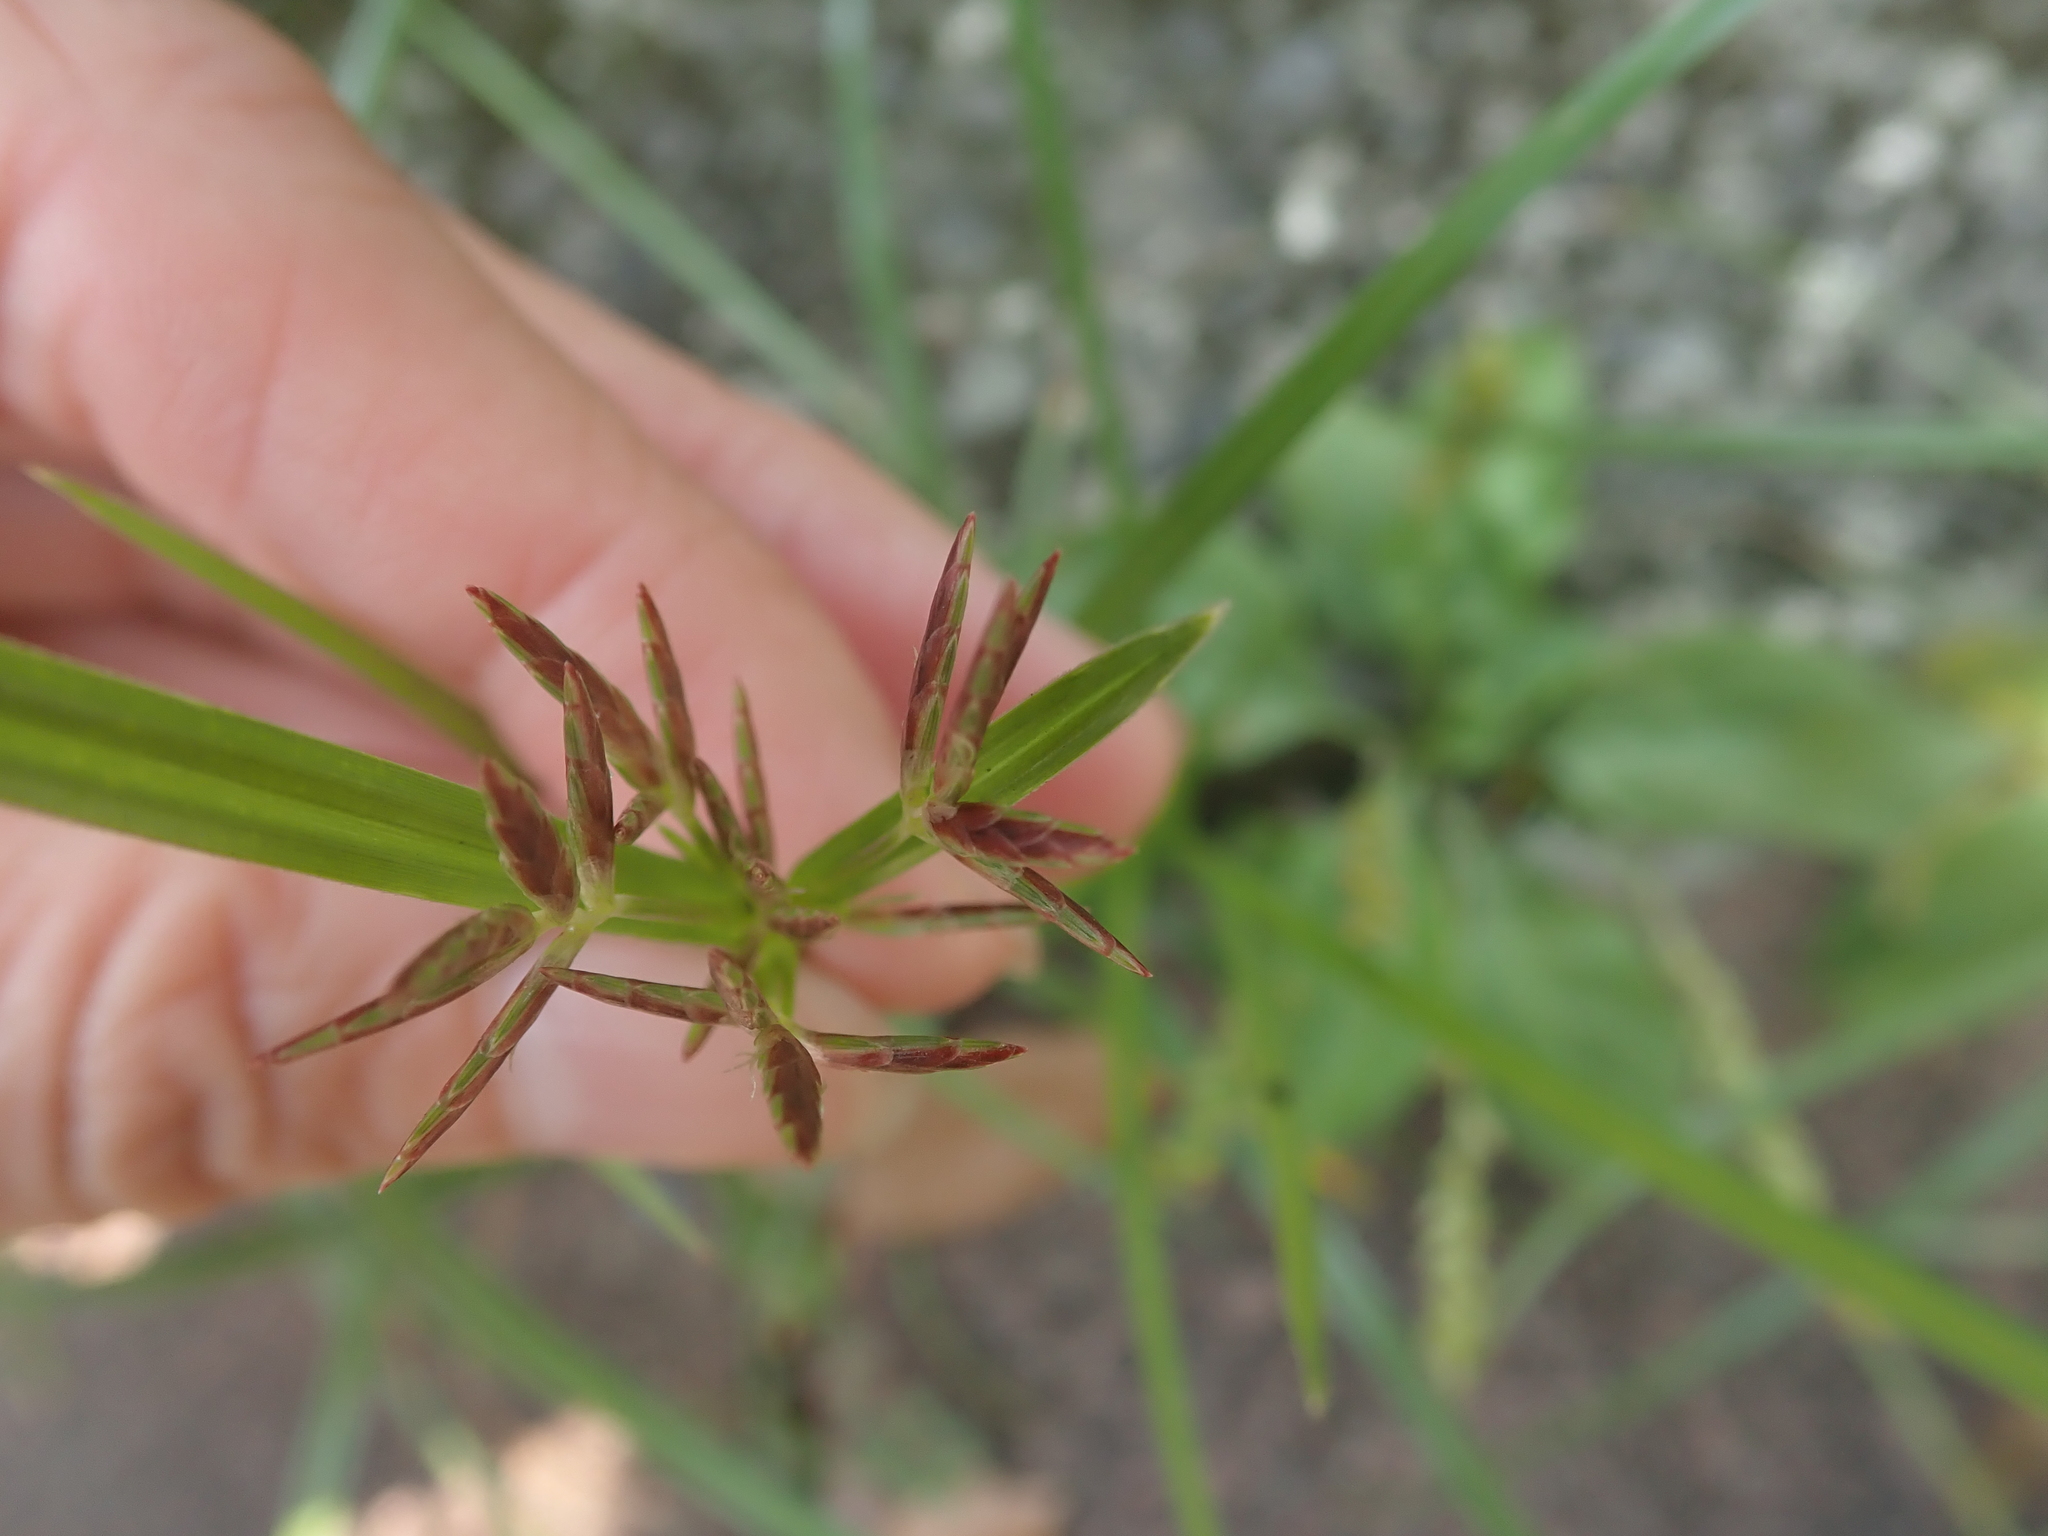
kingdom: Plantae
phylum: Tracheophyta
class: Liliopsida
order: Poales
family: Cyperaceae
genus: Cyperus
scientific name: Cyperus rotundus
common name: Nutgrass
